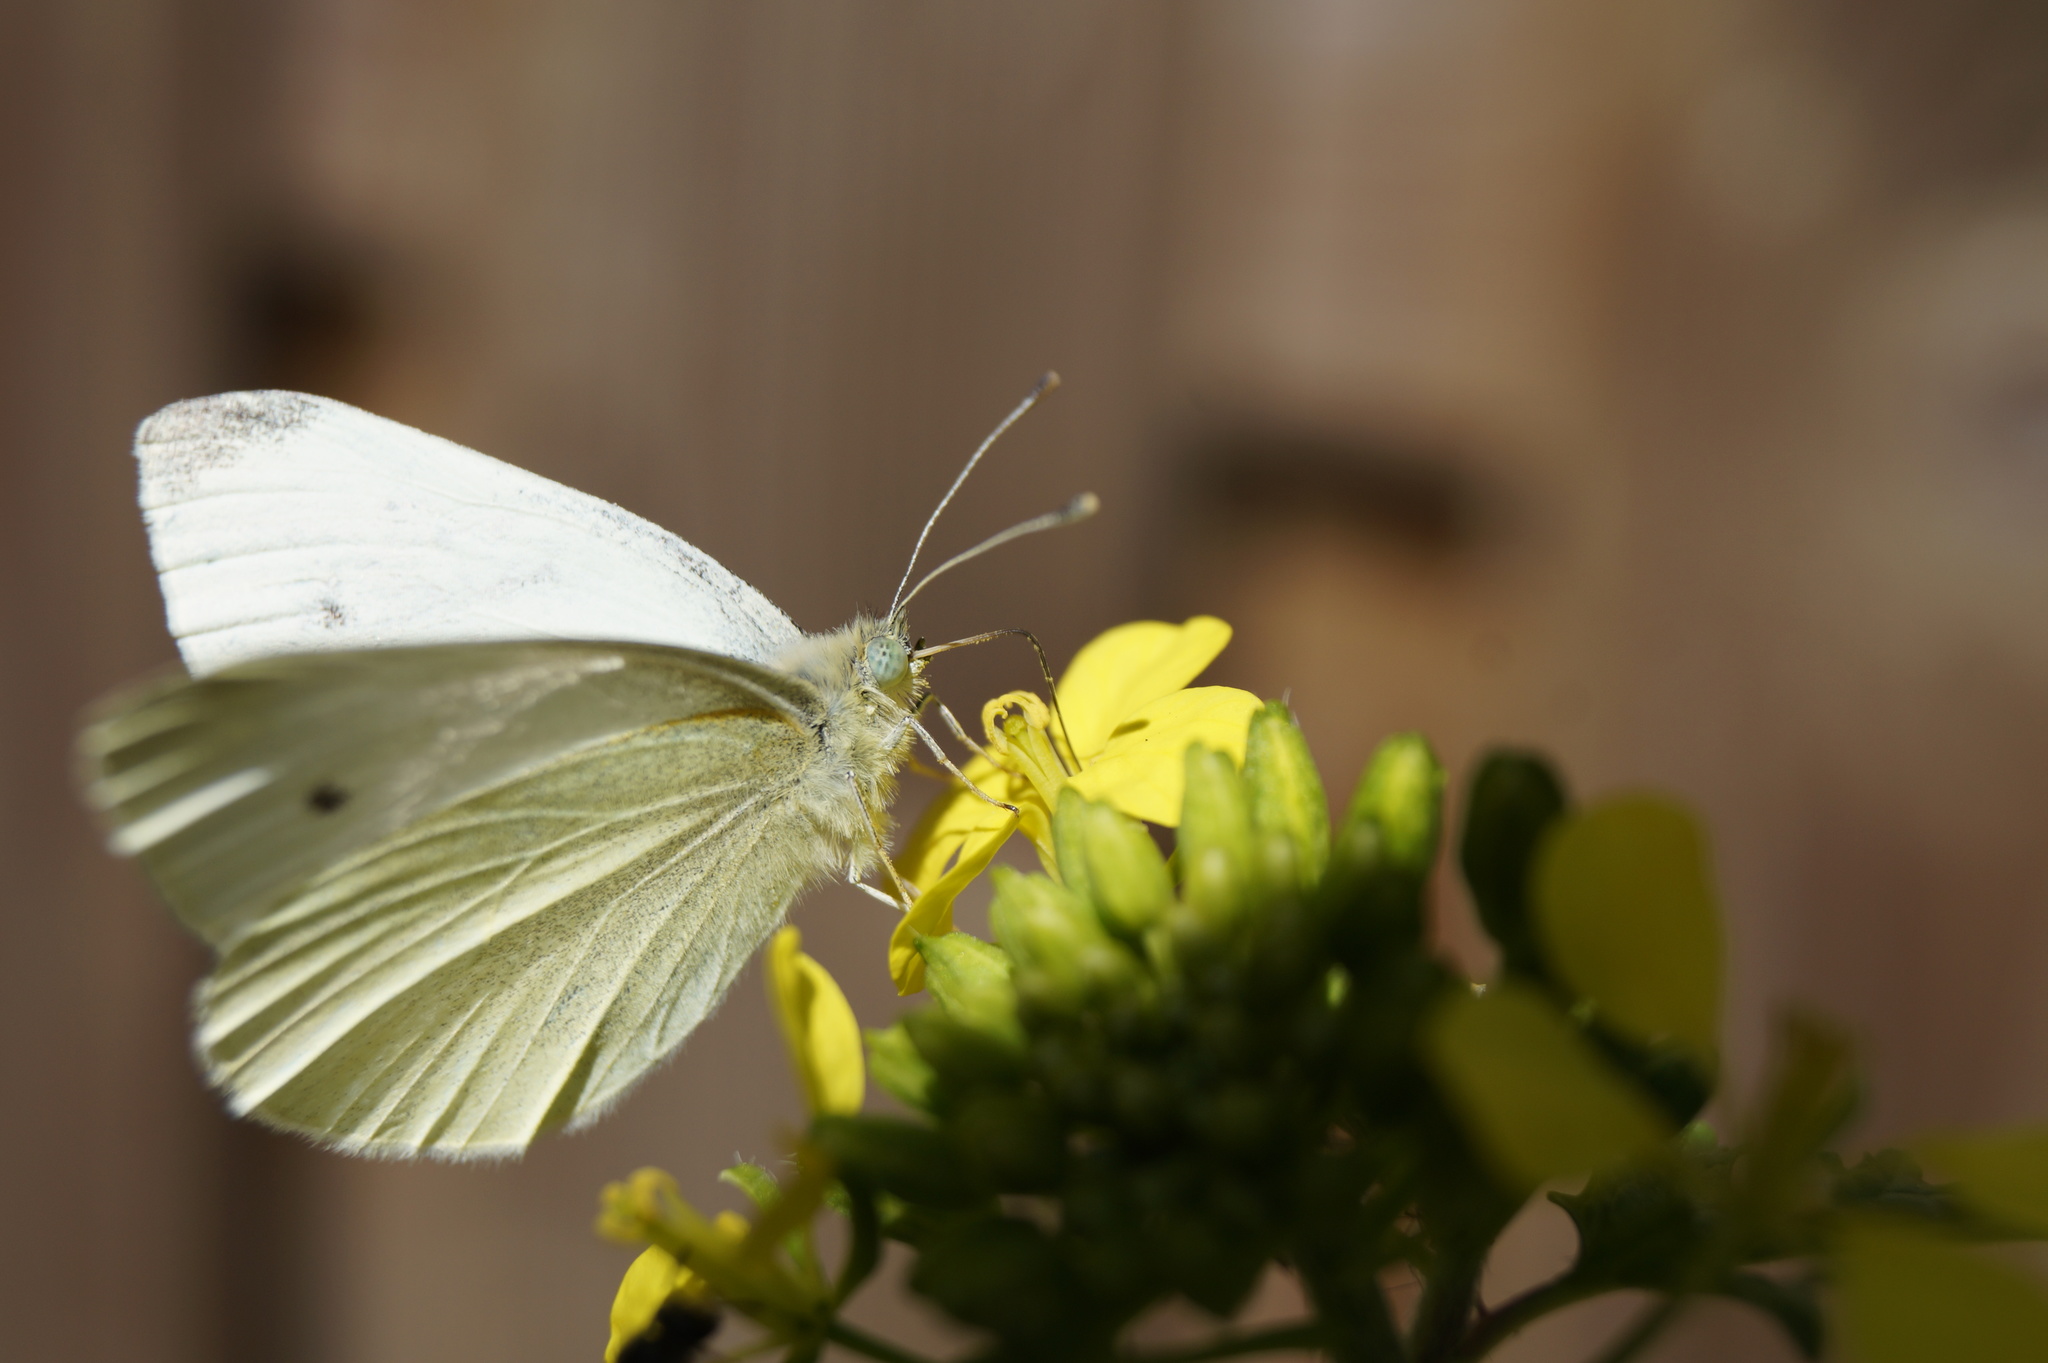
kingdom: Animalia
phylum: Arthropoda
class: Insecta
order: Lepidoptera
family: Pieridae
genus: Pieris
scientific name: Pieris rapae
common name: Small white
